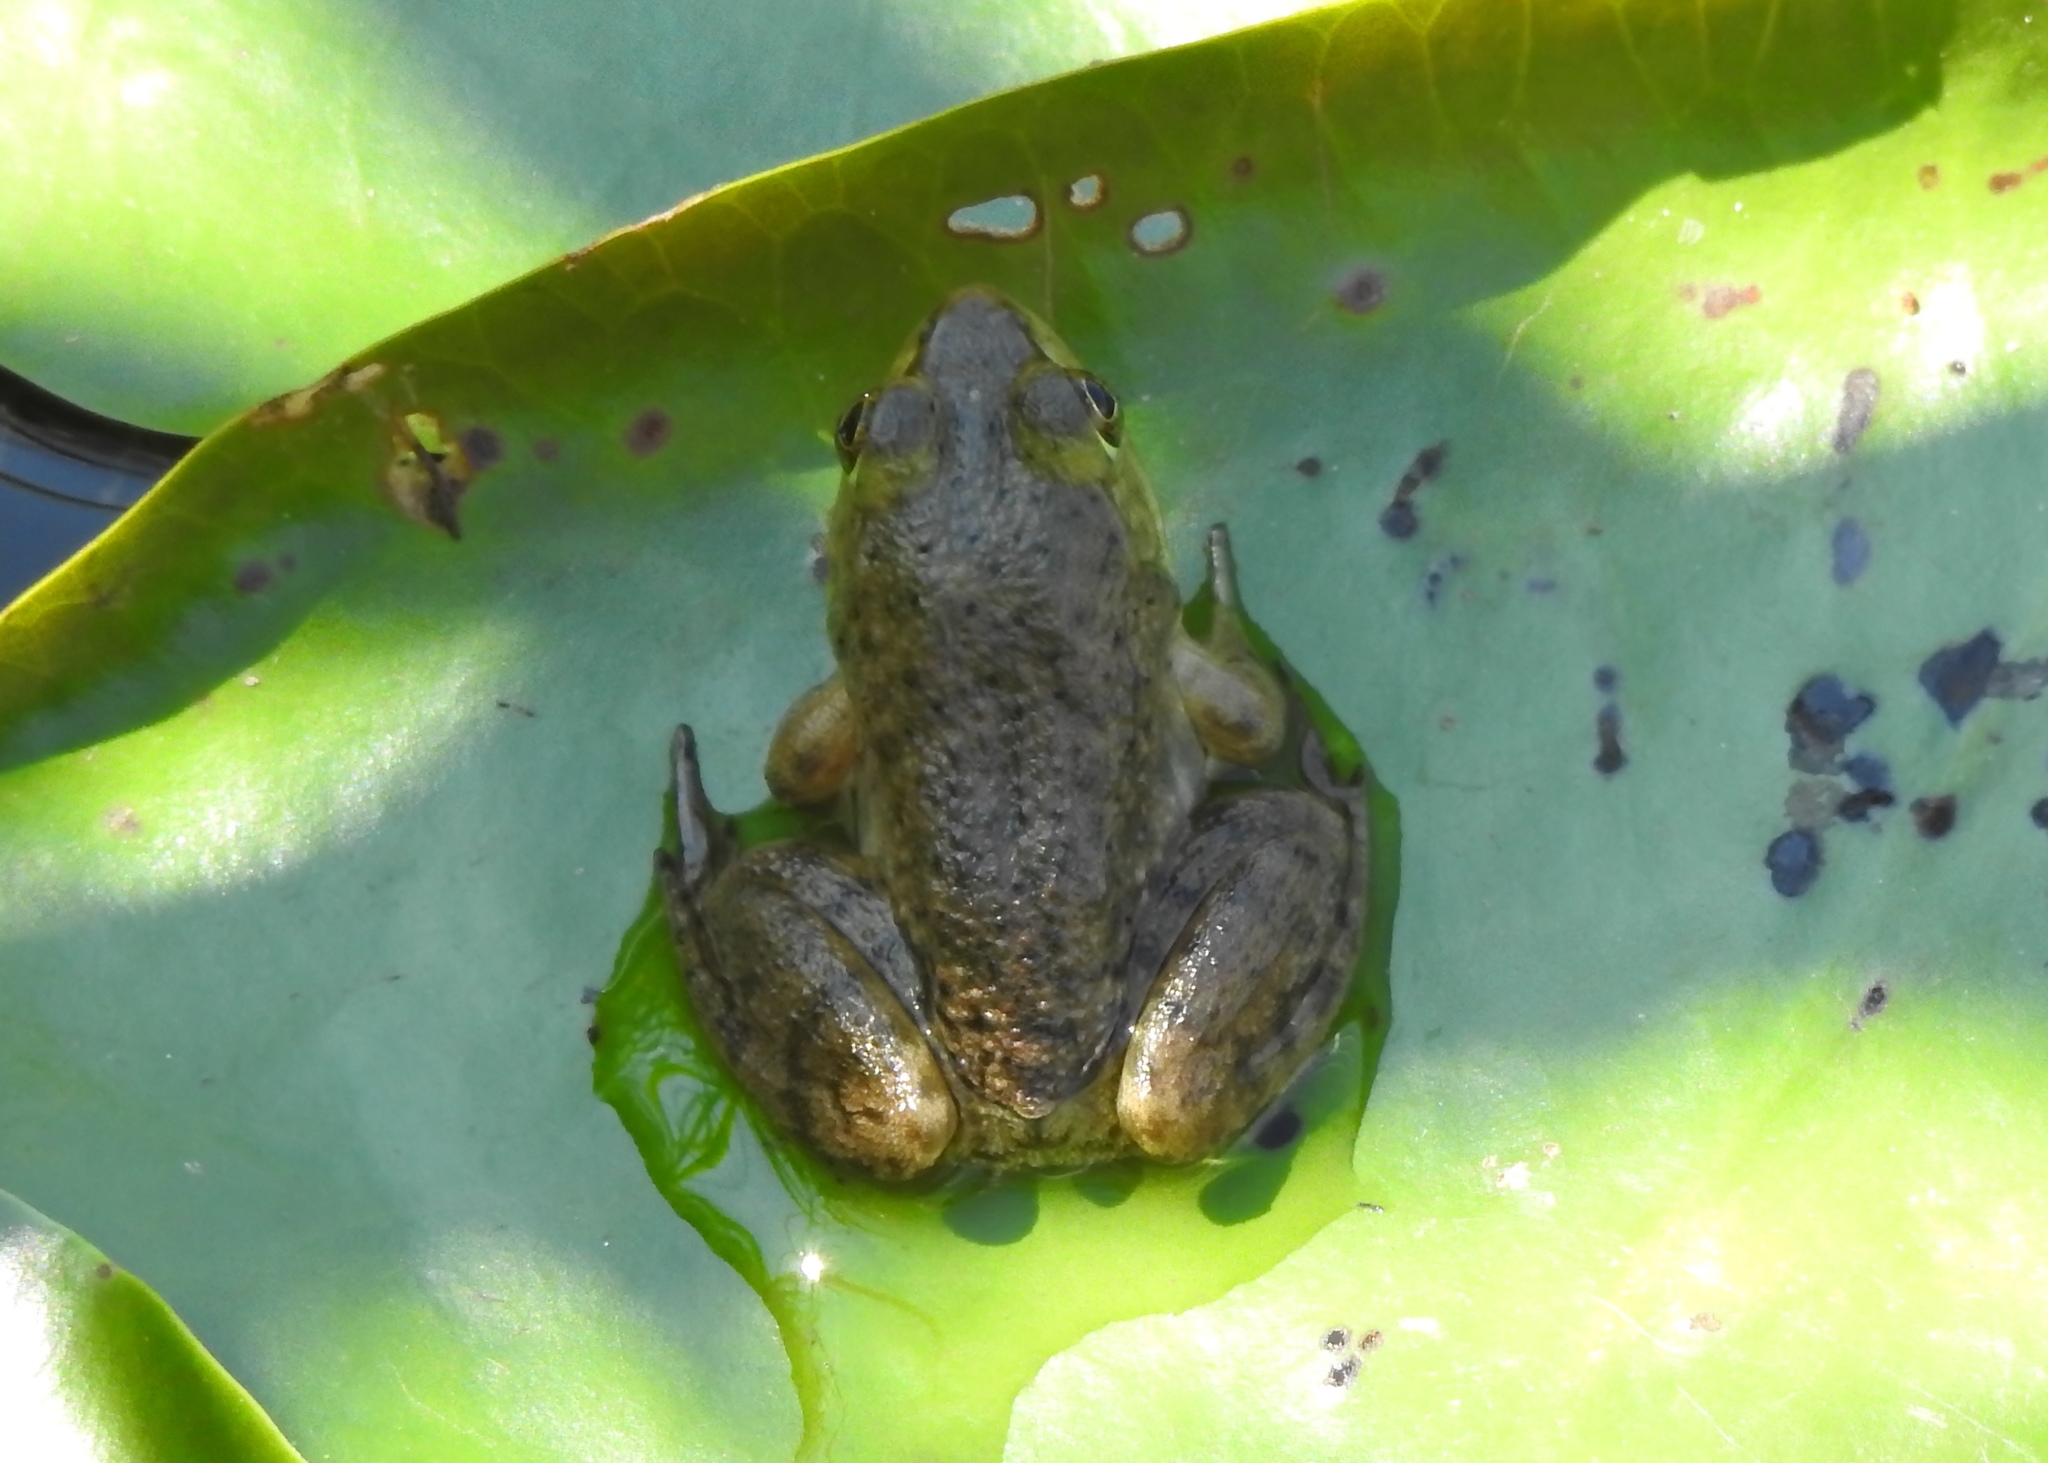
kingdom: Animalia
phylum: Chordata
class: Amphibia
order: Anura
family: Ranidae
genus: Lithobates
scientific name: Lithobates catesbeianus
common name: American bullfrog
